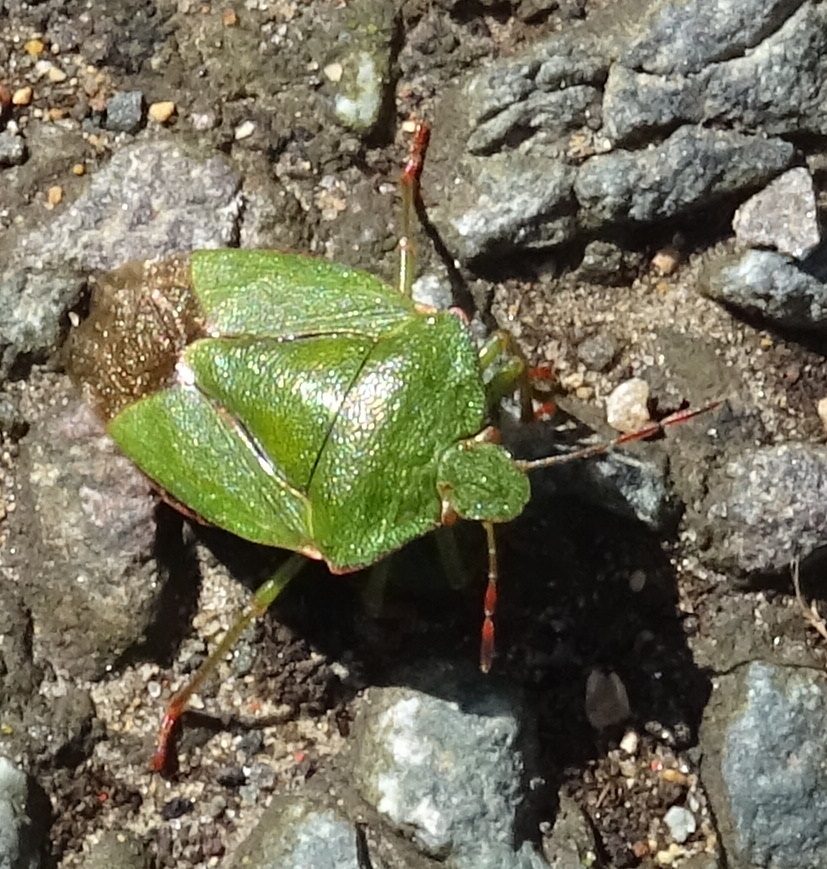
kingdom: Animalia
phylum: Arthropoda
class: Insecta
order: Hemiptera
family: Pentatomidae
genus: Palomena
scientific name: Palomena prasina
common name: Green shieldbug
